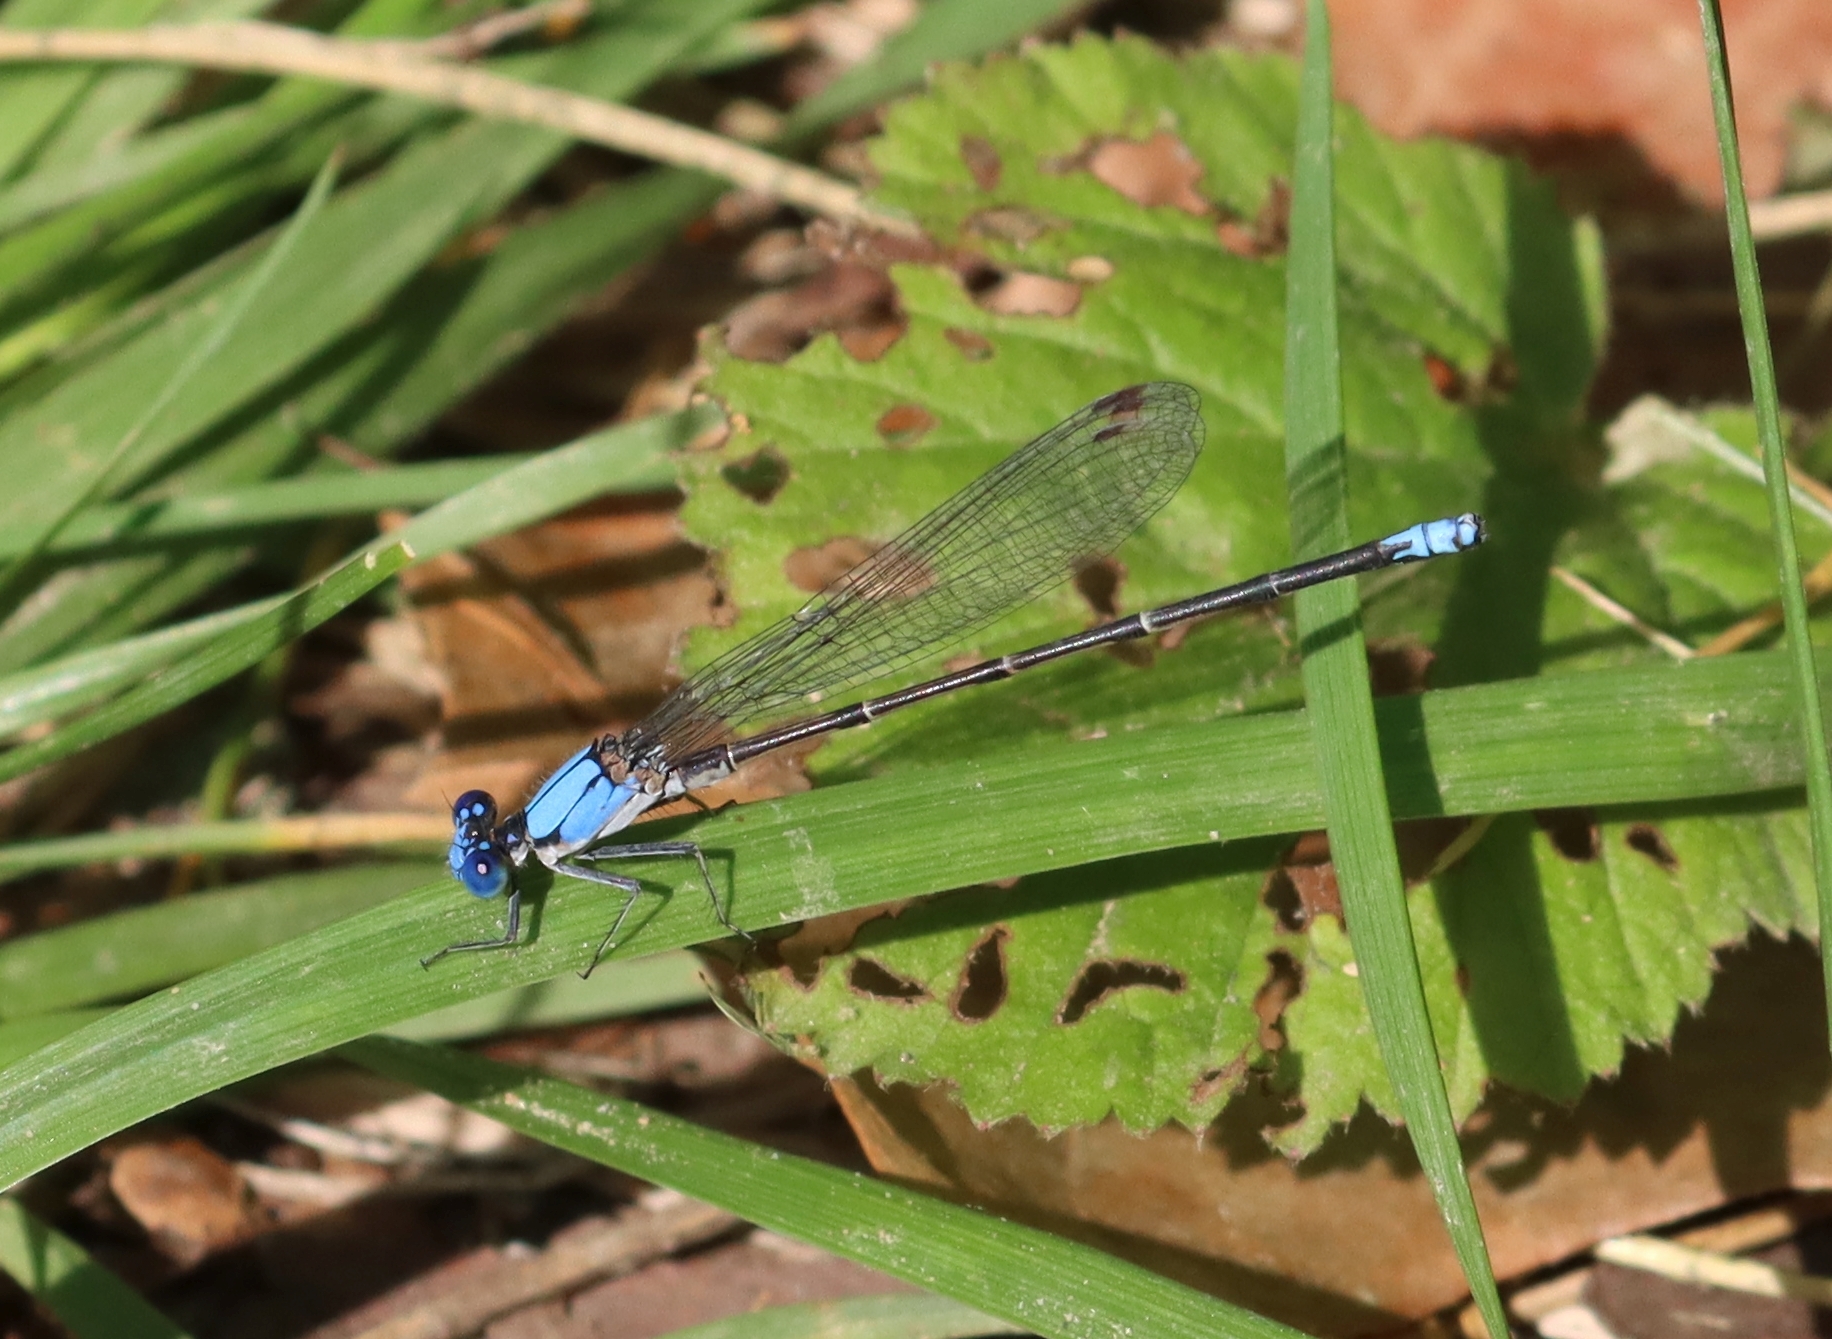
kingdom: Animalia
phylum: Arthropoda
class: Insecta
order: Odonata
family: Coenagrionidae
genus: Argia
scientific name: Argia apicalis
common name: Blue-fronted dancer
